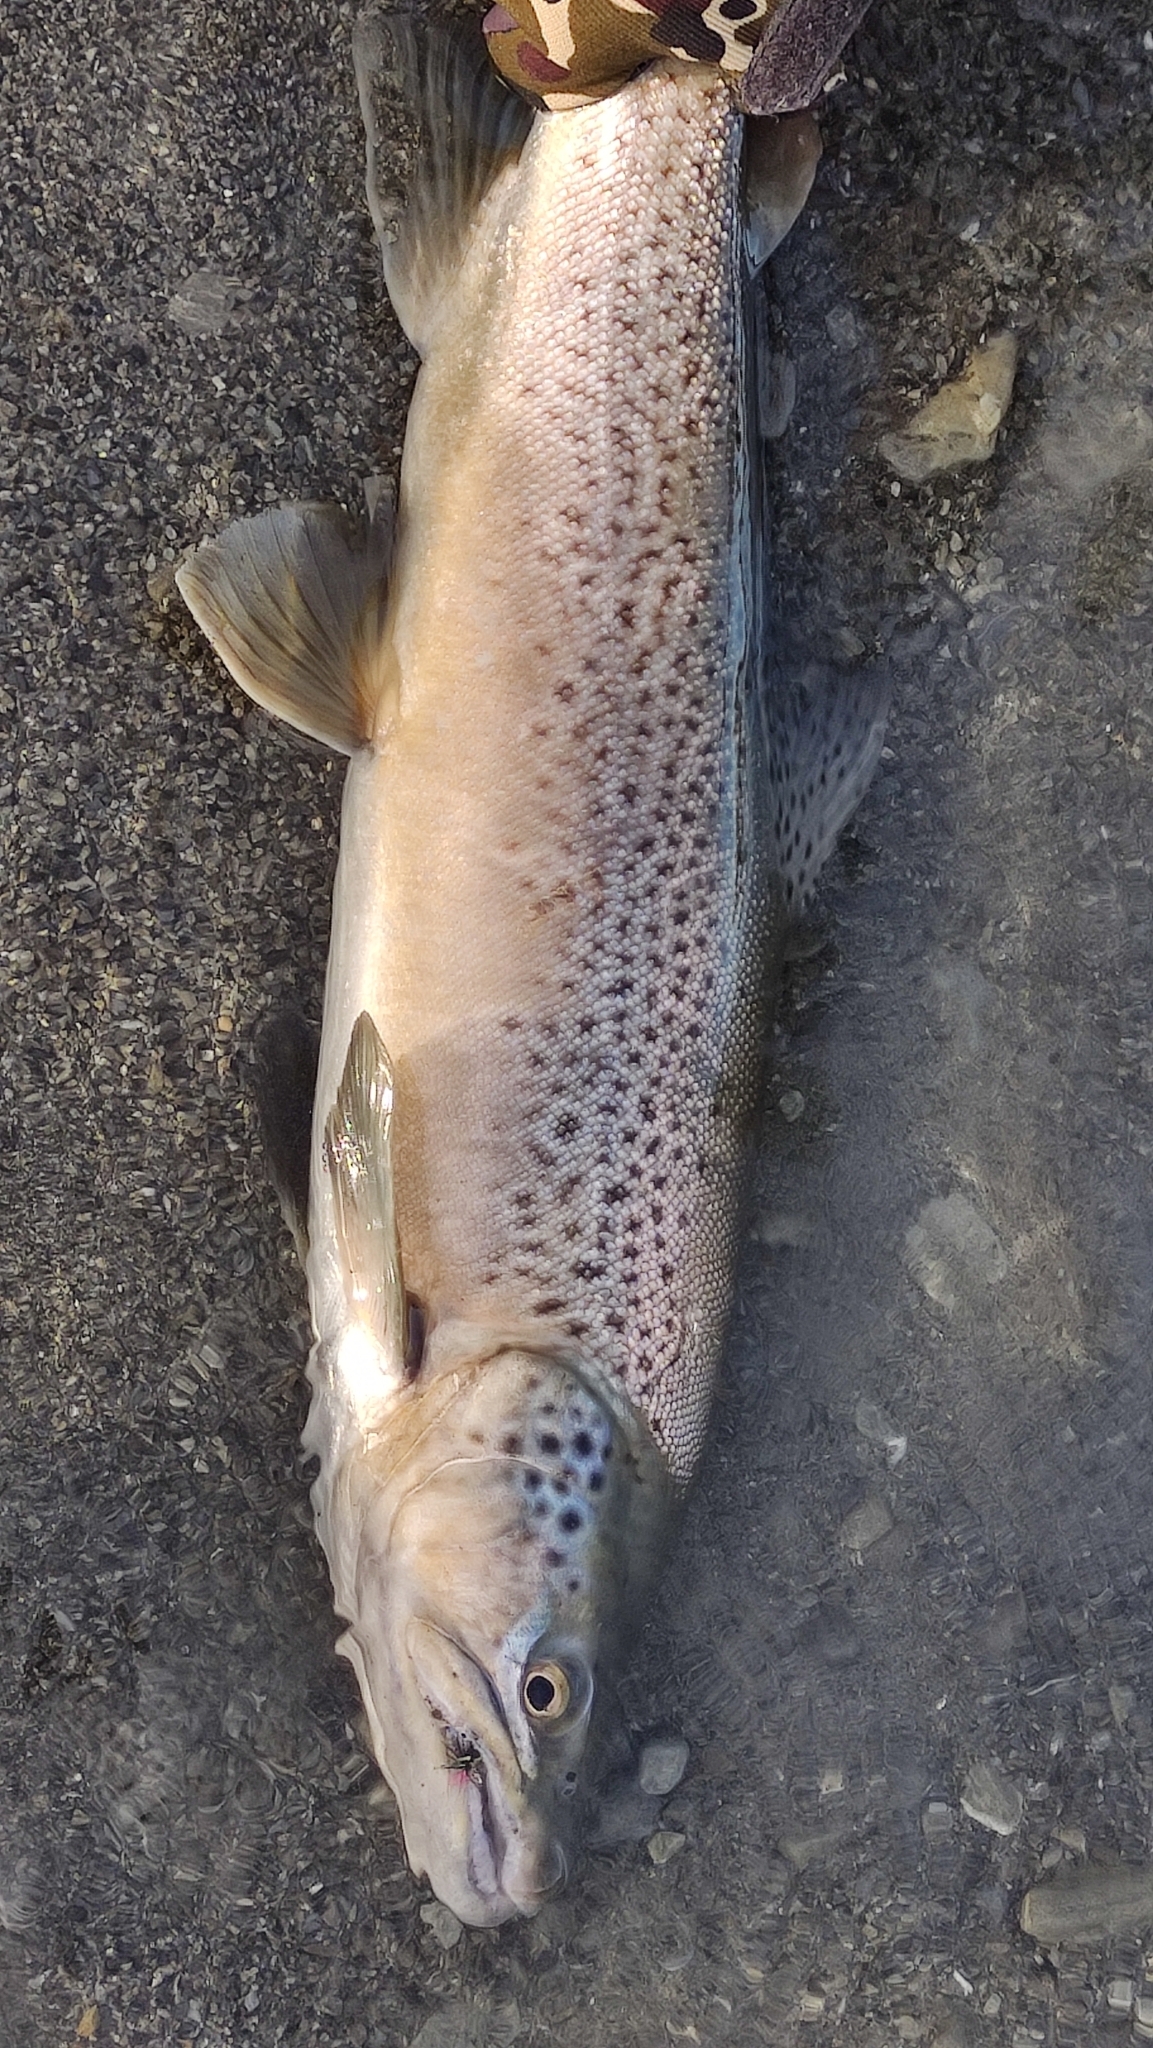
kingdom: Animalia
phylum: Chordata
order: Salmoniformes
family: Salmonidae
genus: Salmo
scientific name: Salmo trutta
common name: Brown trout
